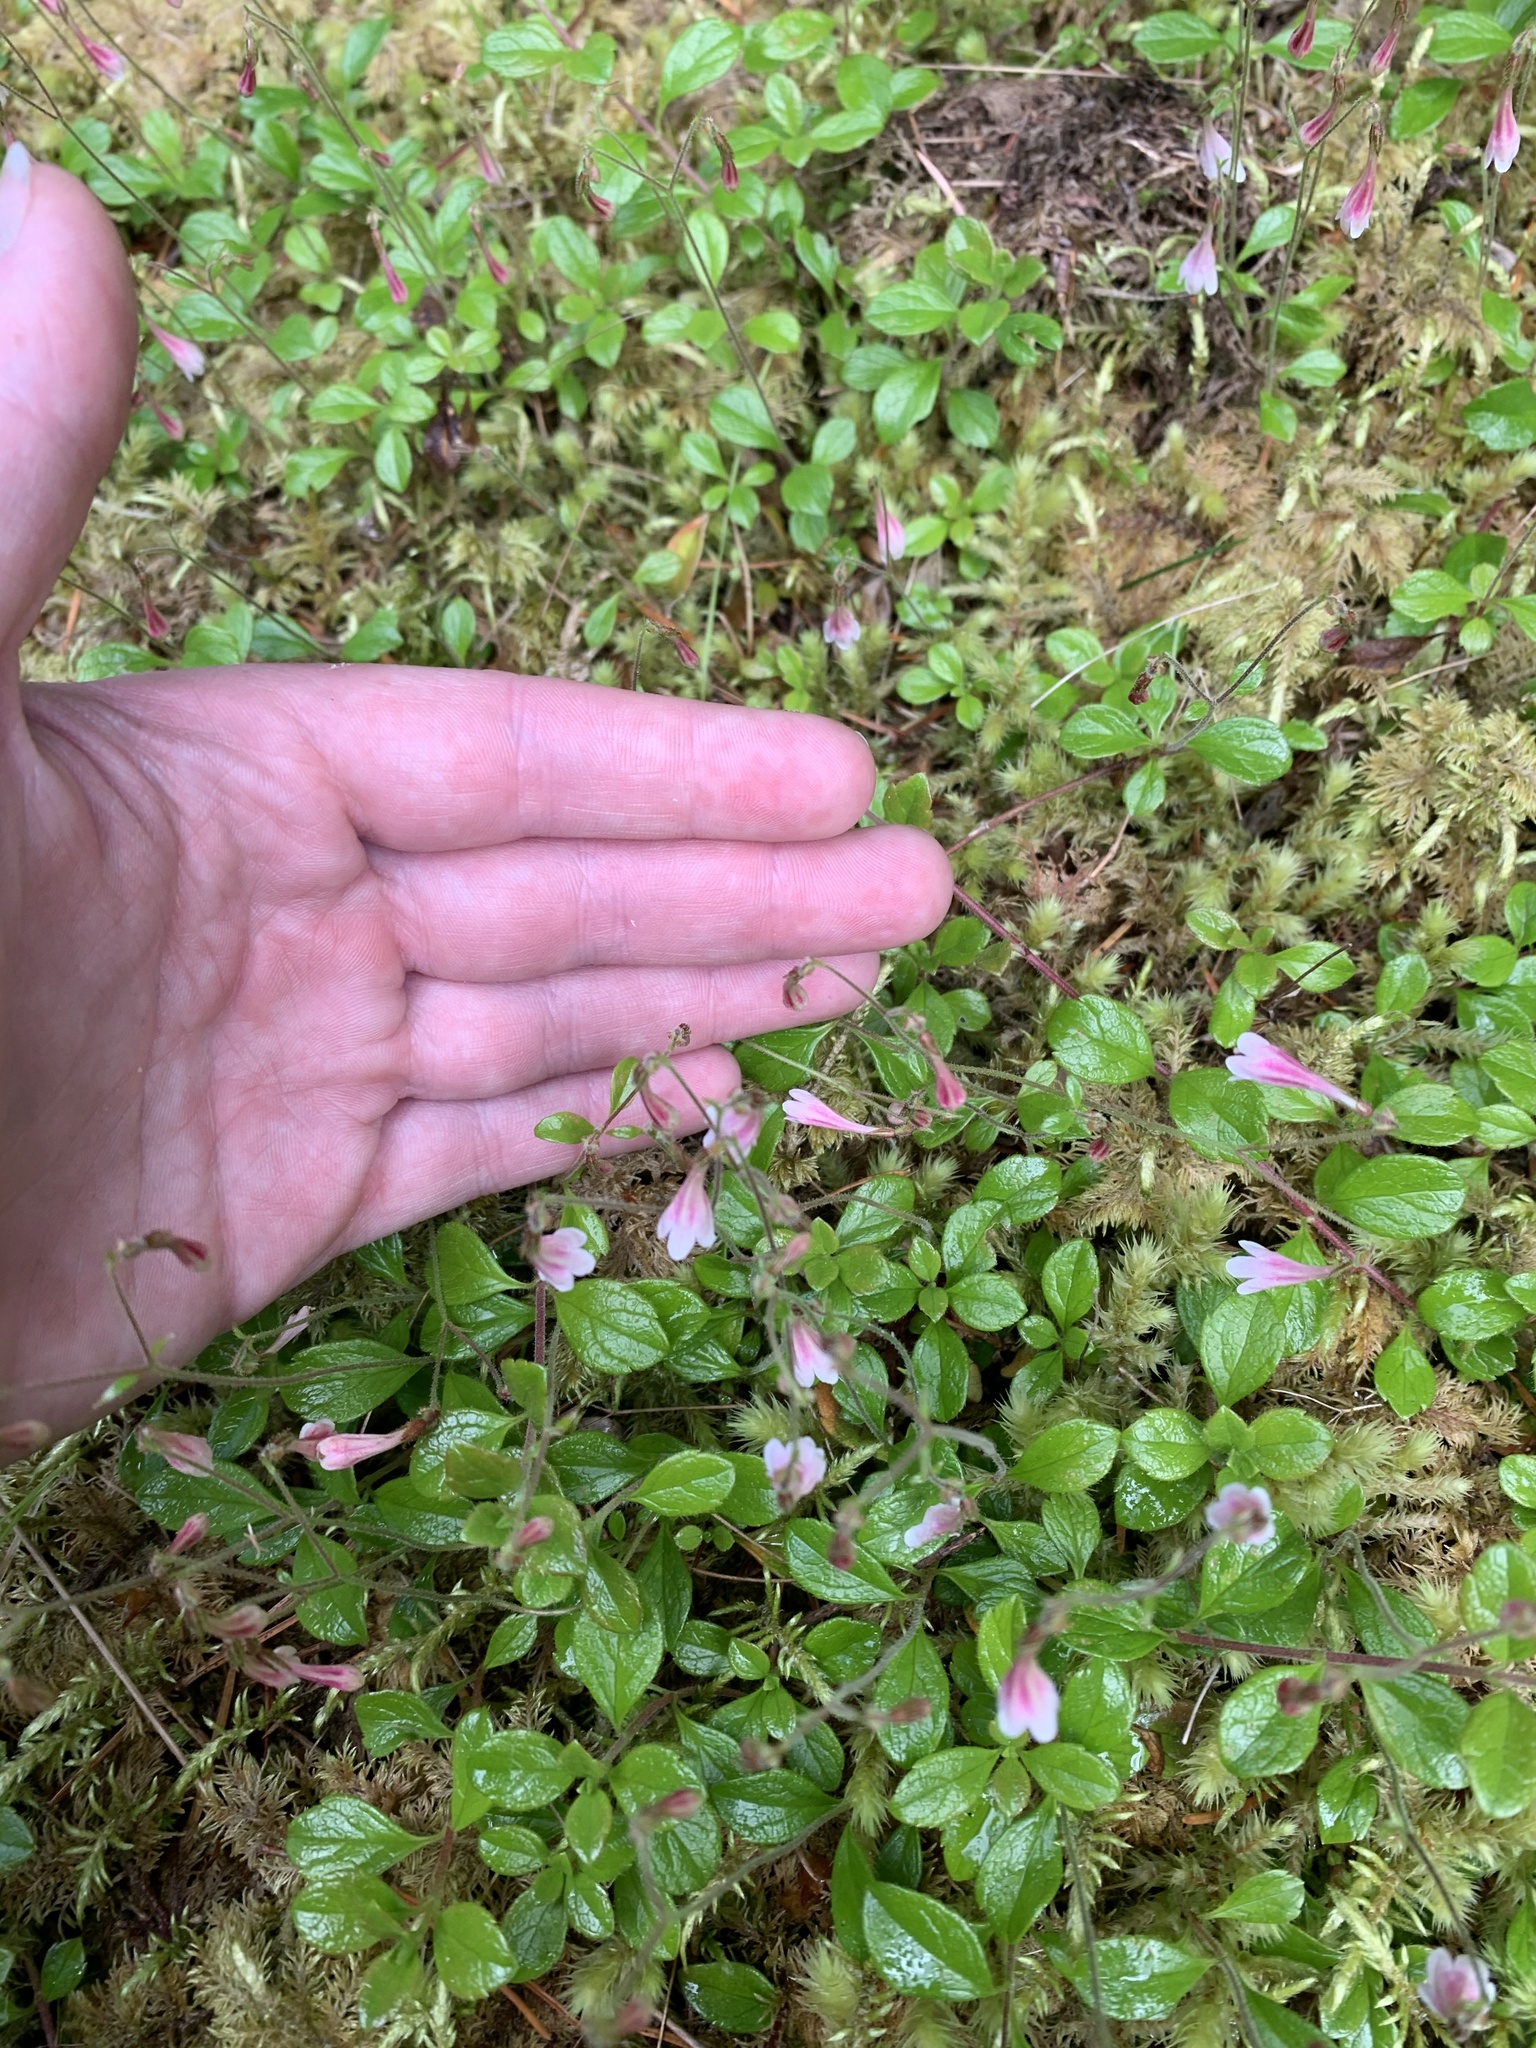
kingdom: Plantae
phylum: Tracheophyta
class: Magnoliopsida
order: Dipsacales
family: Caprifoliaceae
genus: Linnaea
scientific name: Linnaea borealis
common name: Twinflower
